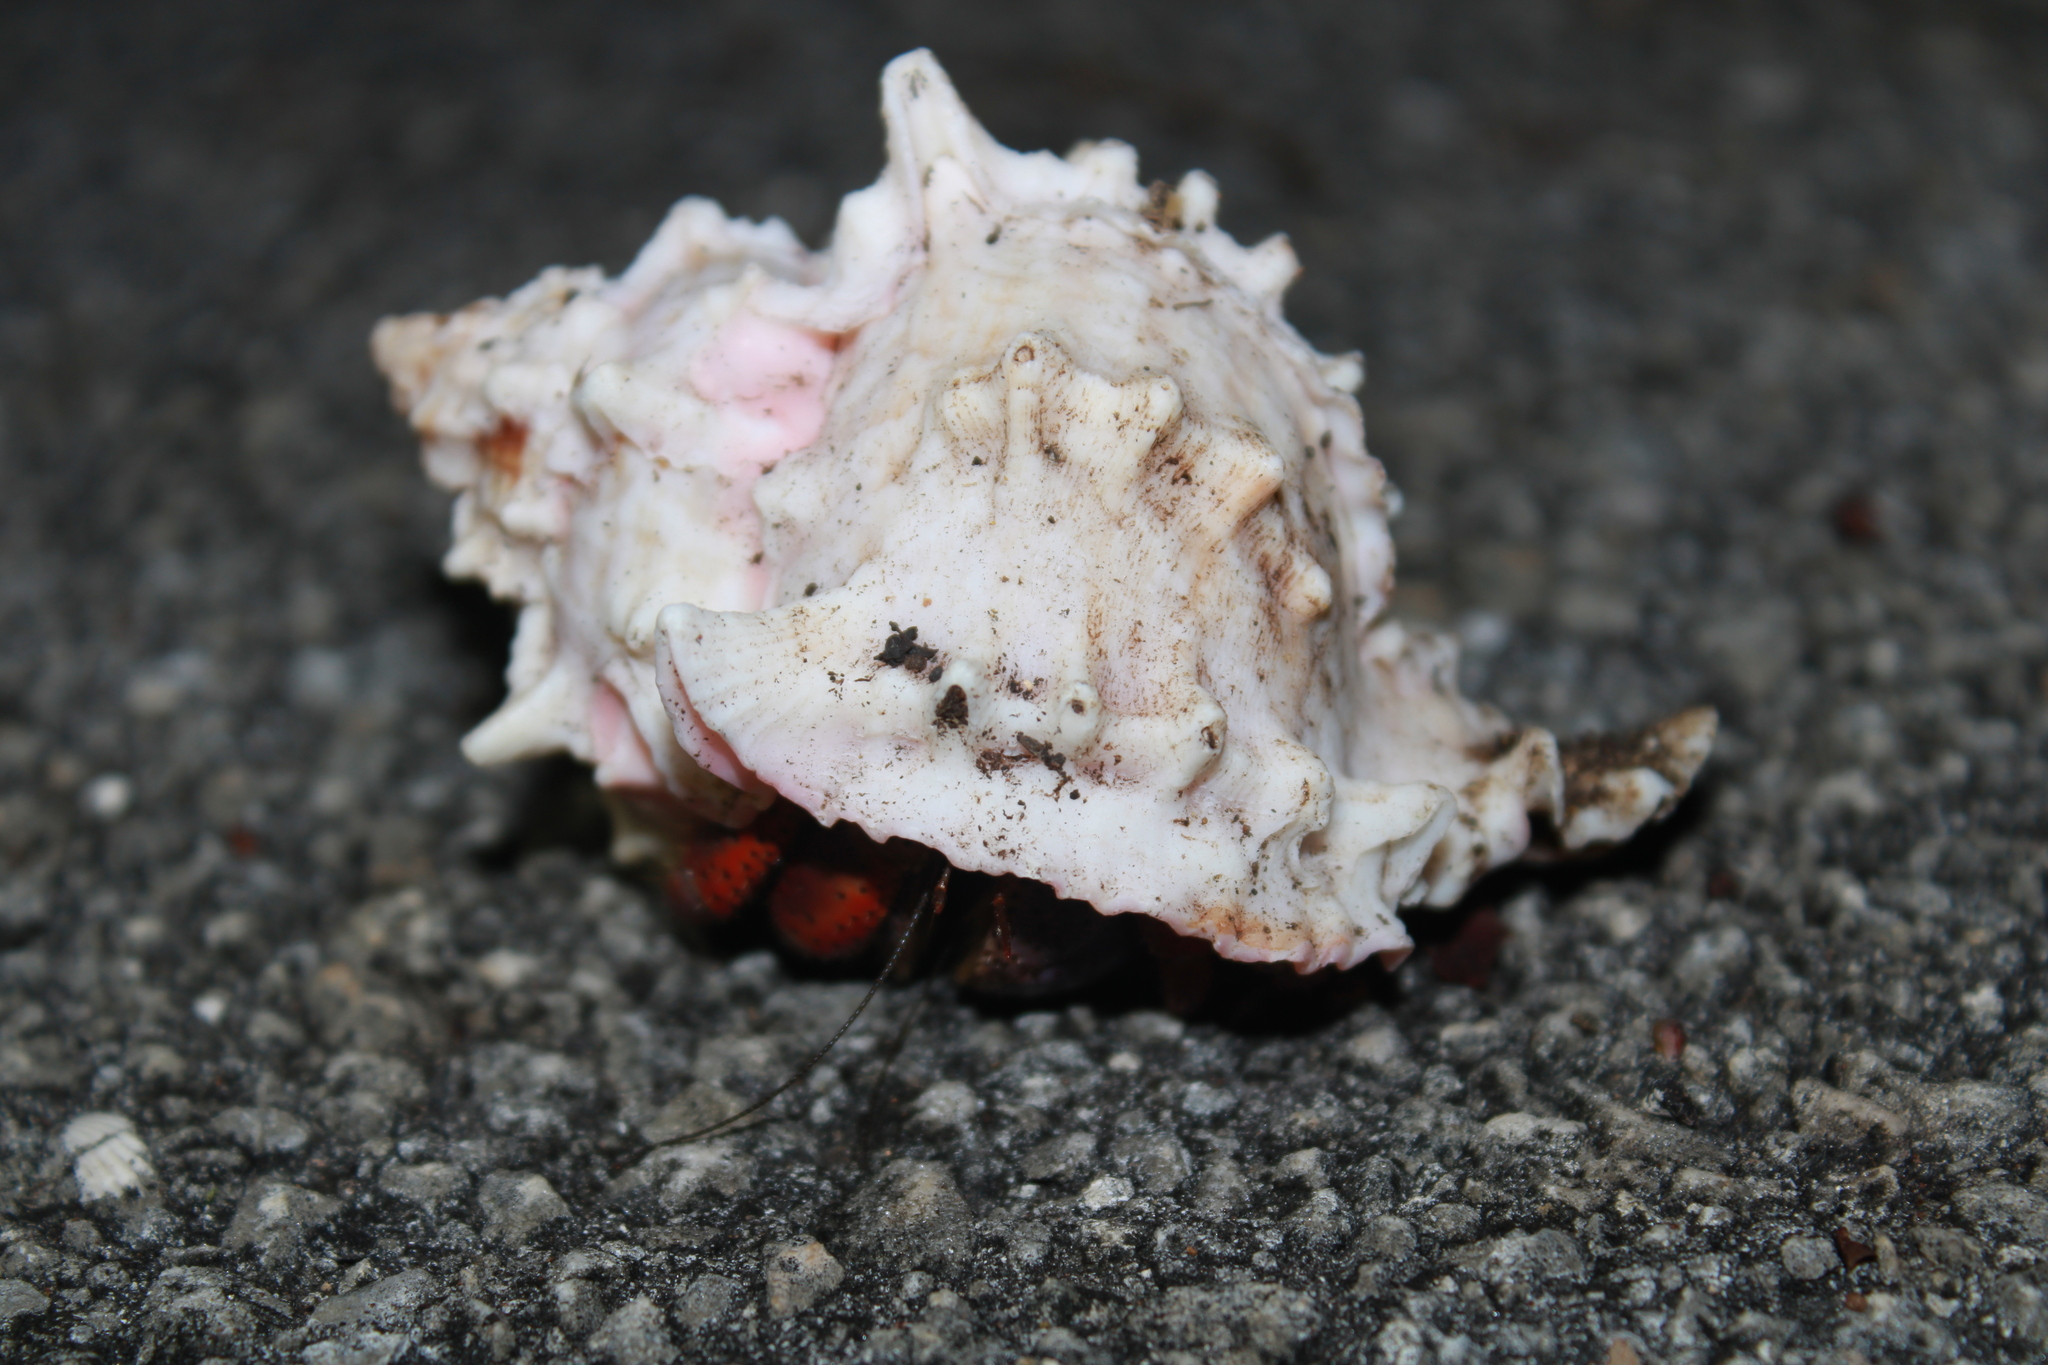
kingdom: Animalia
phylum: Arthropoda
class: Malacostraca
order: Decapoda
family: Coenobitidae
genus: Coenobita
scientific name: Coenobita clypeatus
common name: Caribbean hermit crab
